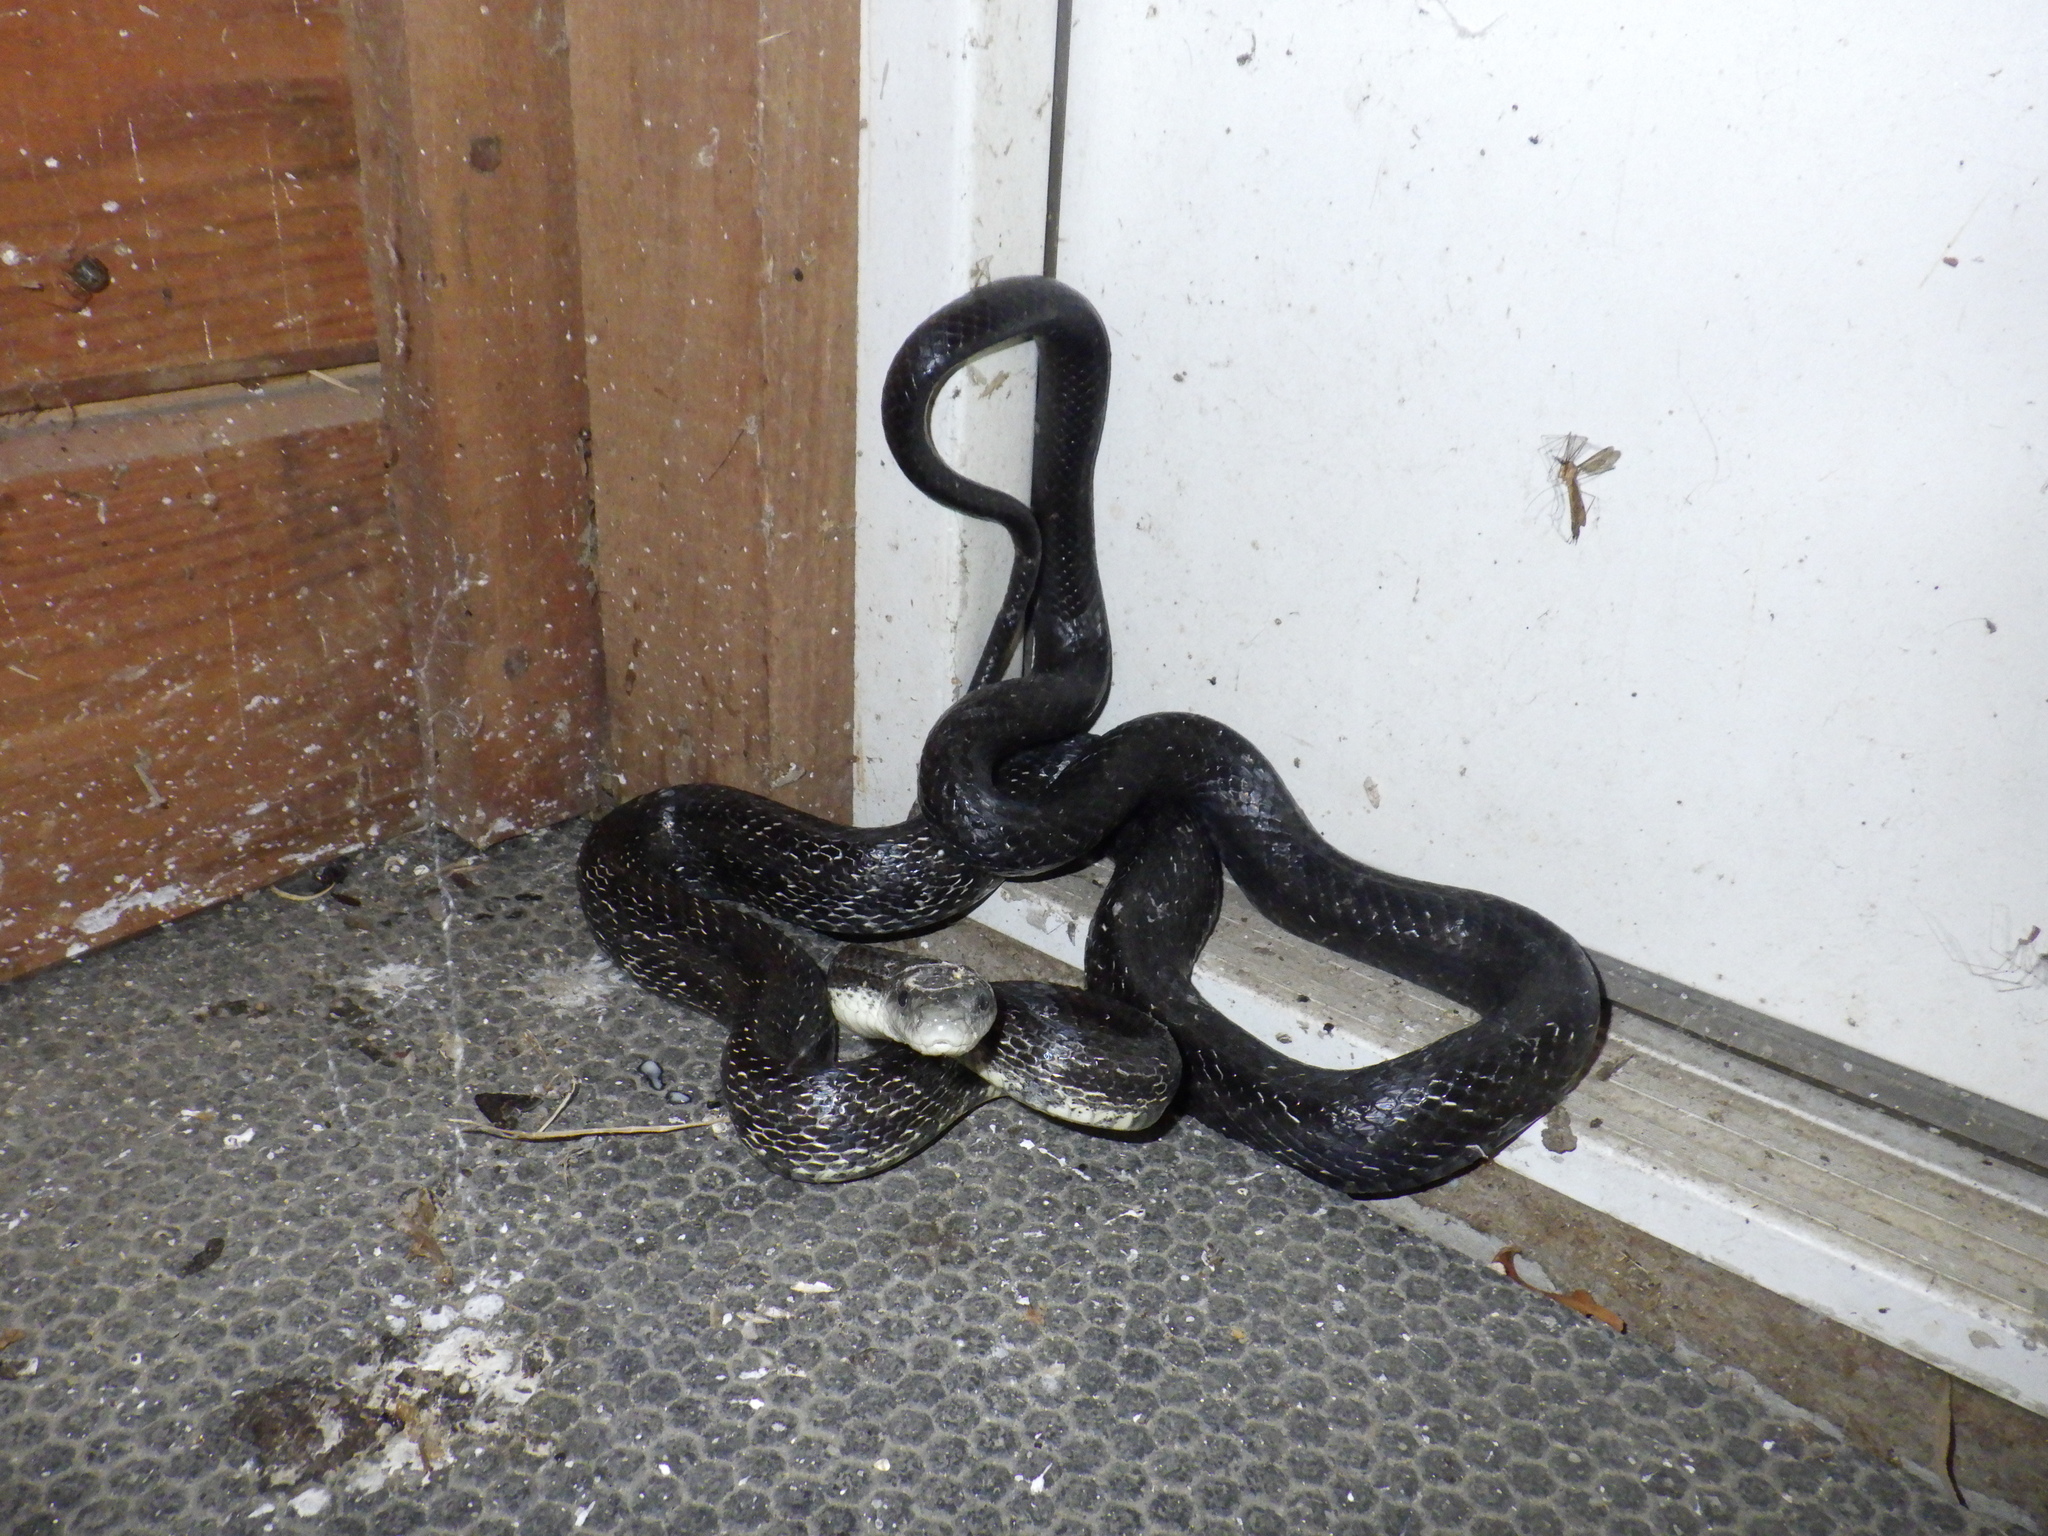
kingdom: Animalia
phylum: Chordata
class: Squamata
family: Colubridae
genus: Pantherophis
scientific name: Pantherophis alleghaniensis
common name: Eastern rat snake
